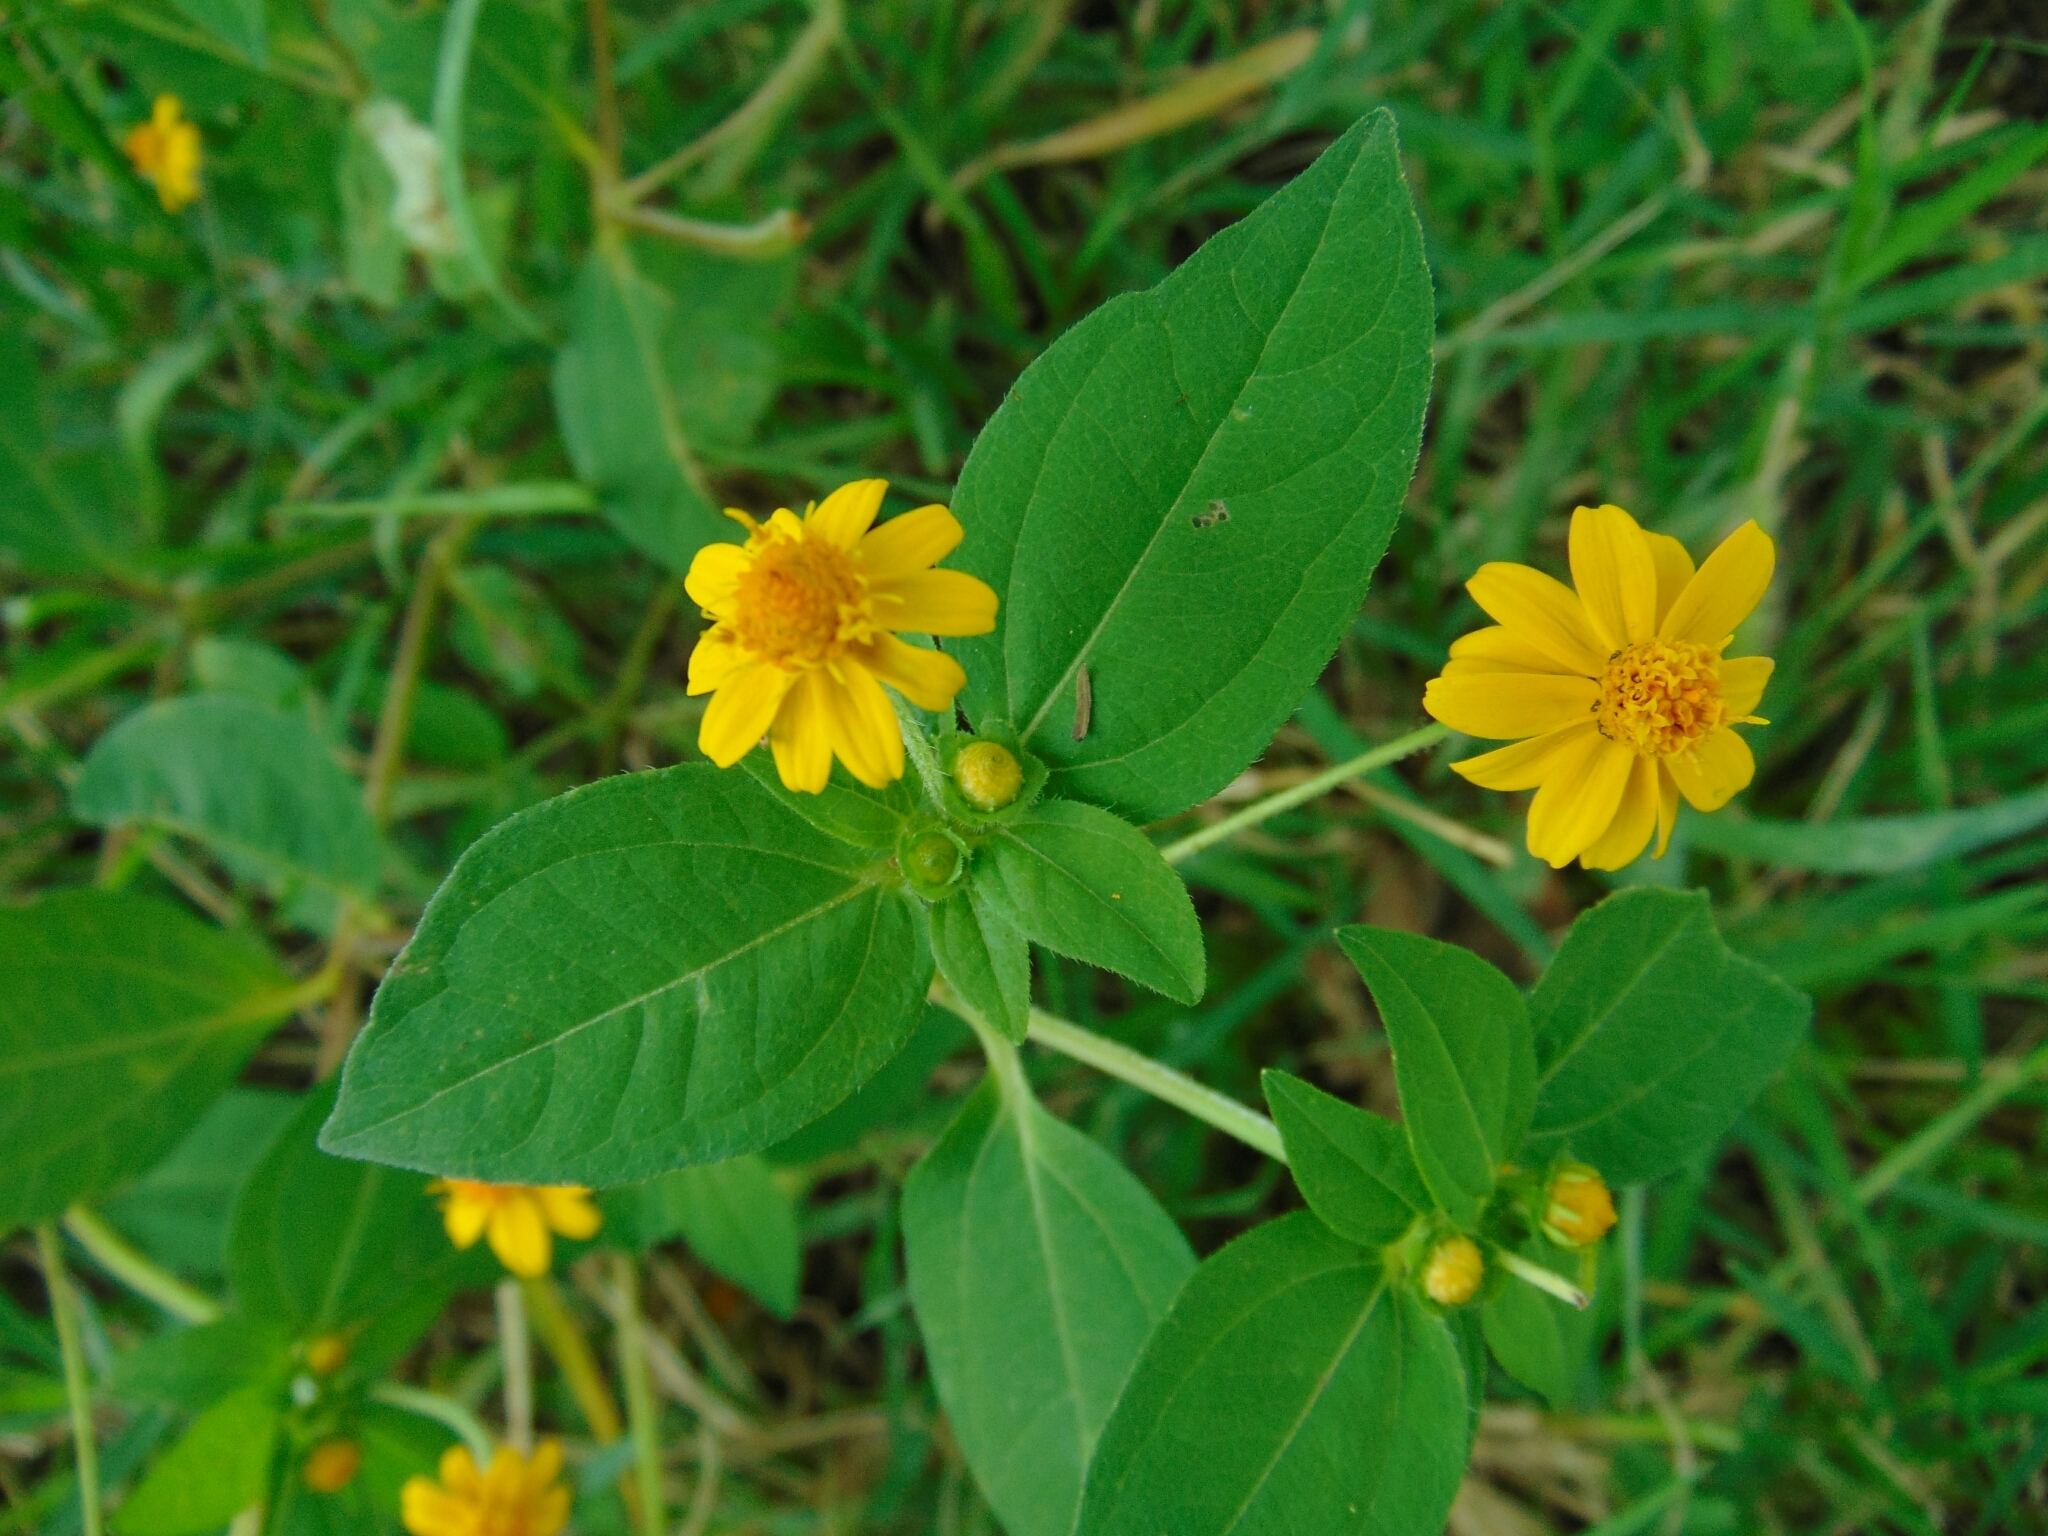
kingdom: Plantae
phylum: Tracheophyta
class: Magnoliopsida
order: Asterales
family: Asteraceae
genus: Melampodium
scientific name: Melampodium divaricatum
